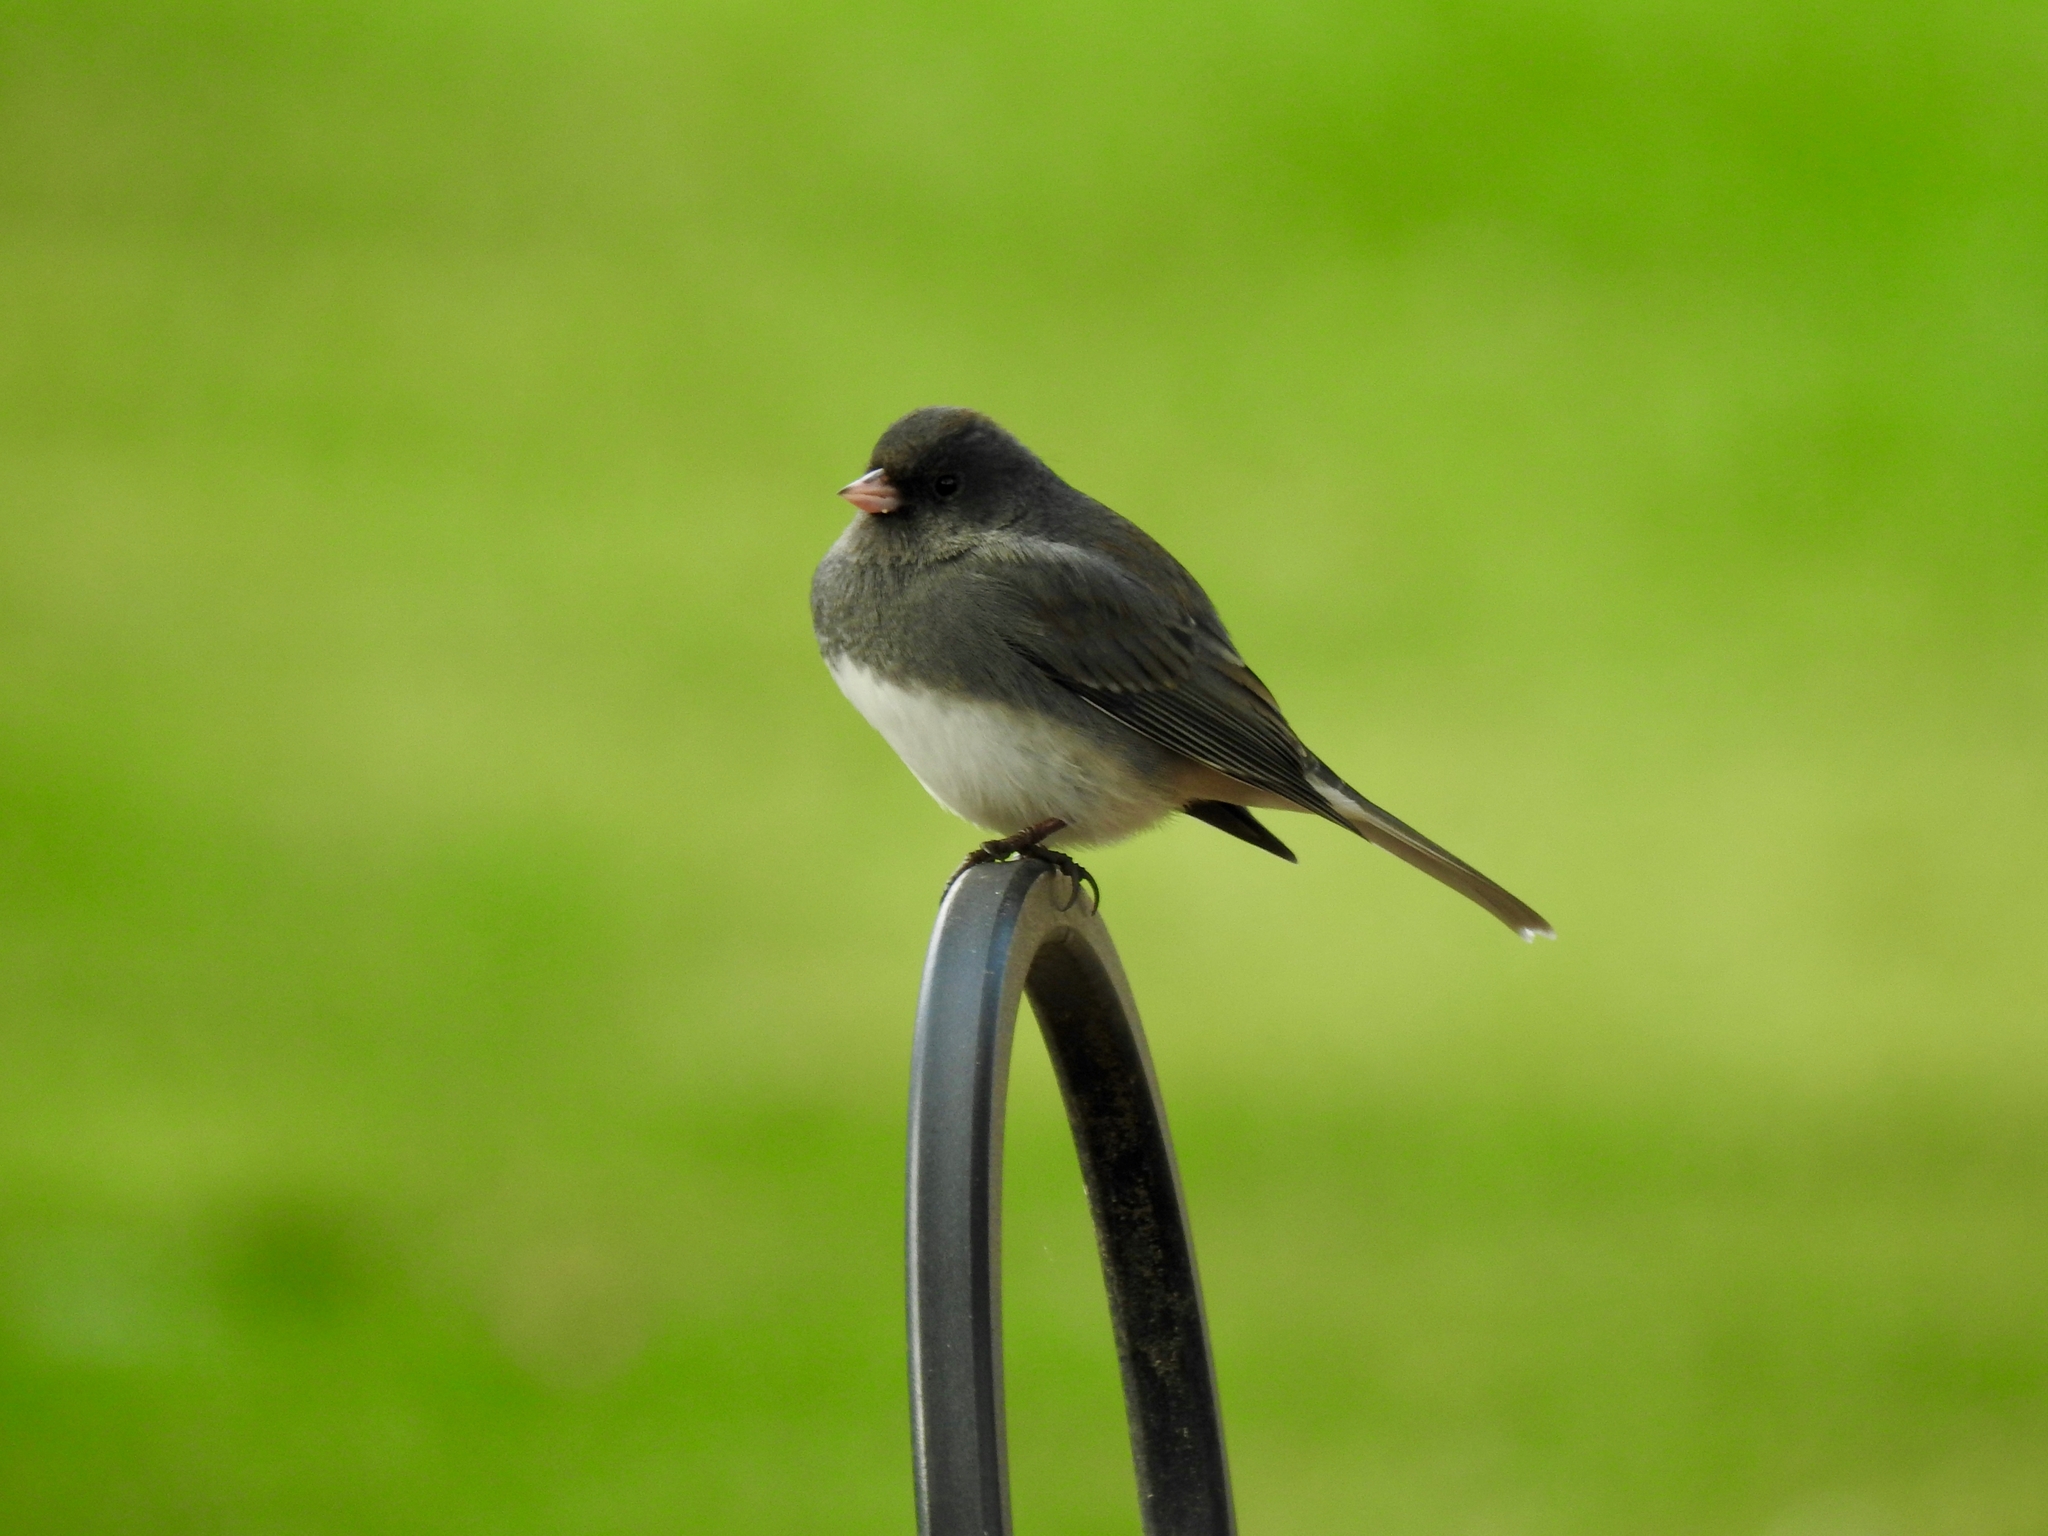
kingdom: Animalia
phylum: Chordata
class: Aves
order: Passeriformes
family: Passerellidae
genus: Junco
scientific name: Junco hyemalis
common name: Dark-eyed junco
